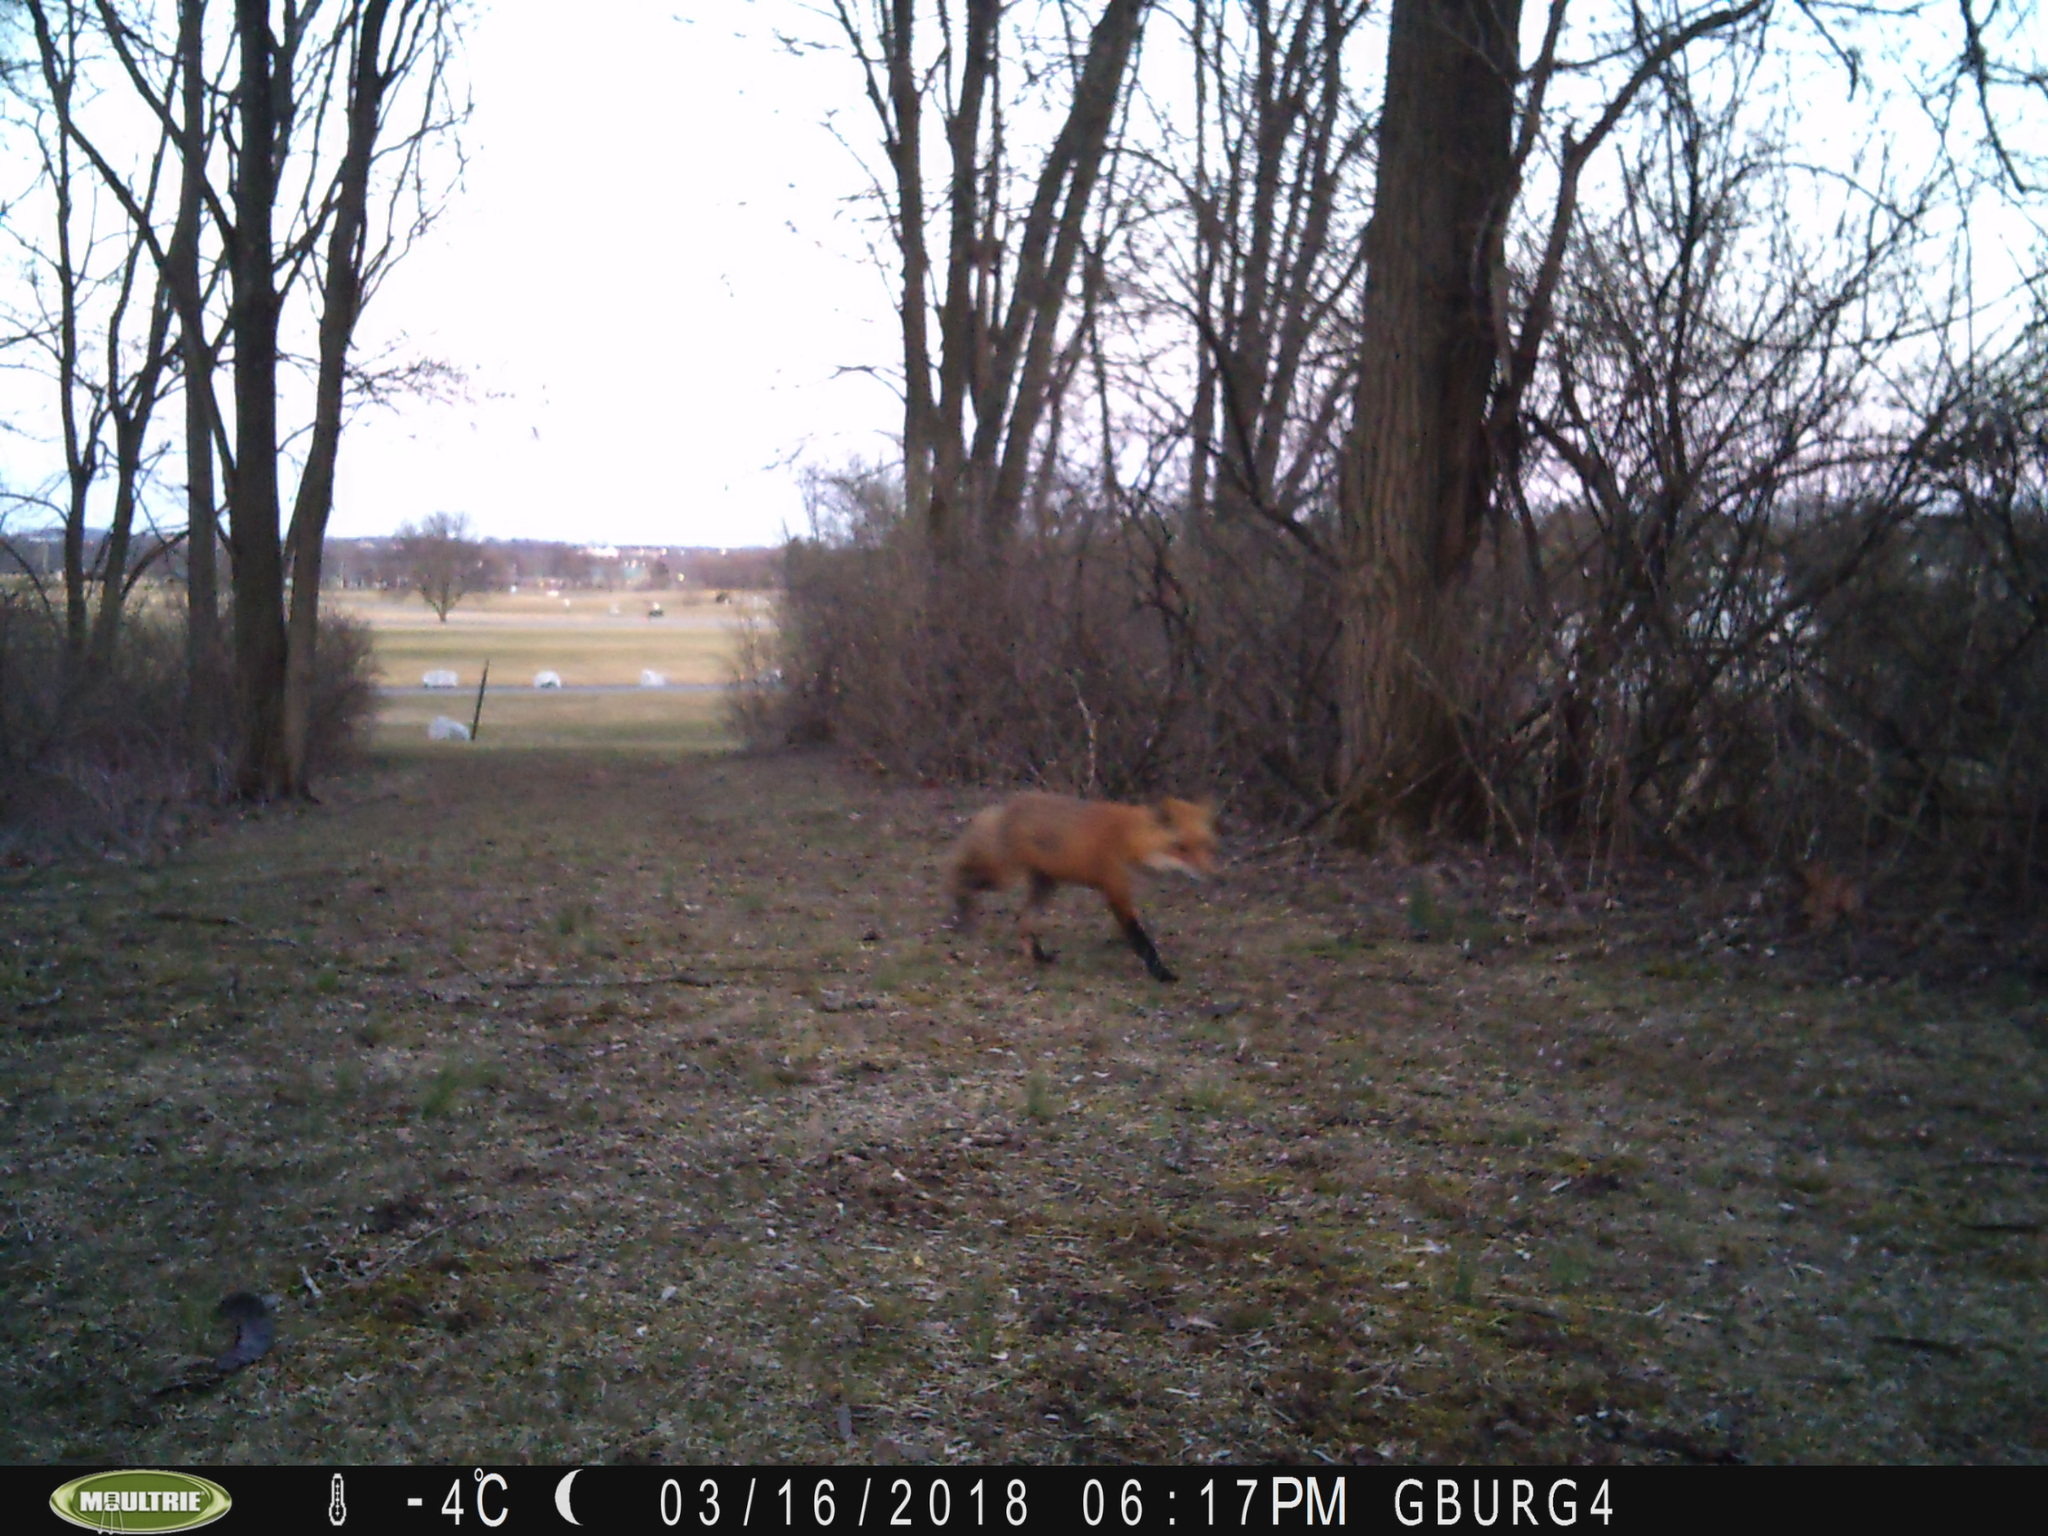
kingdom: Animalia
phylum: Chordata
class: Mammalia
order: Carnivora
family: Canidae
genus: Vulpes
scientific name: Vulpes vulpes
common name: Red fox
